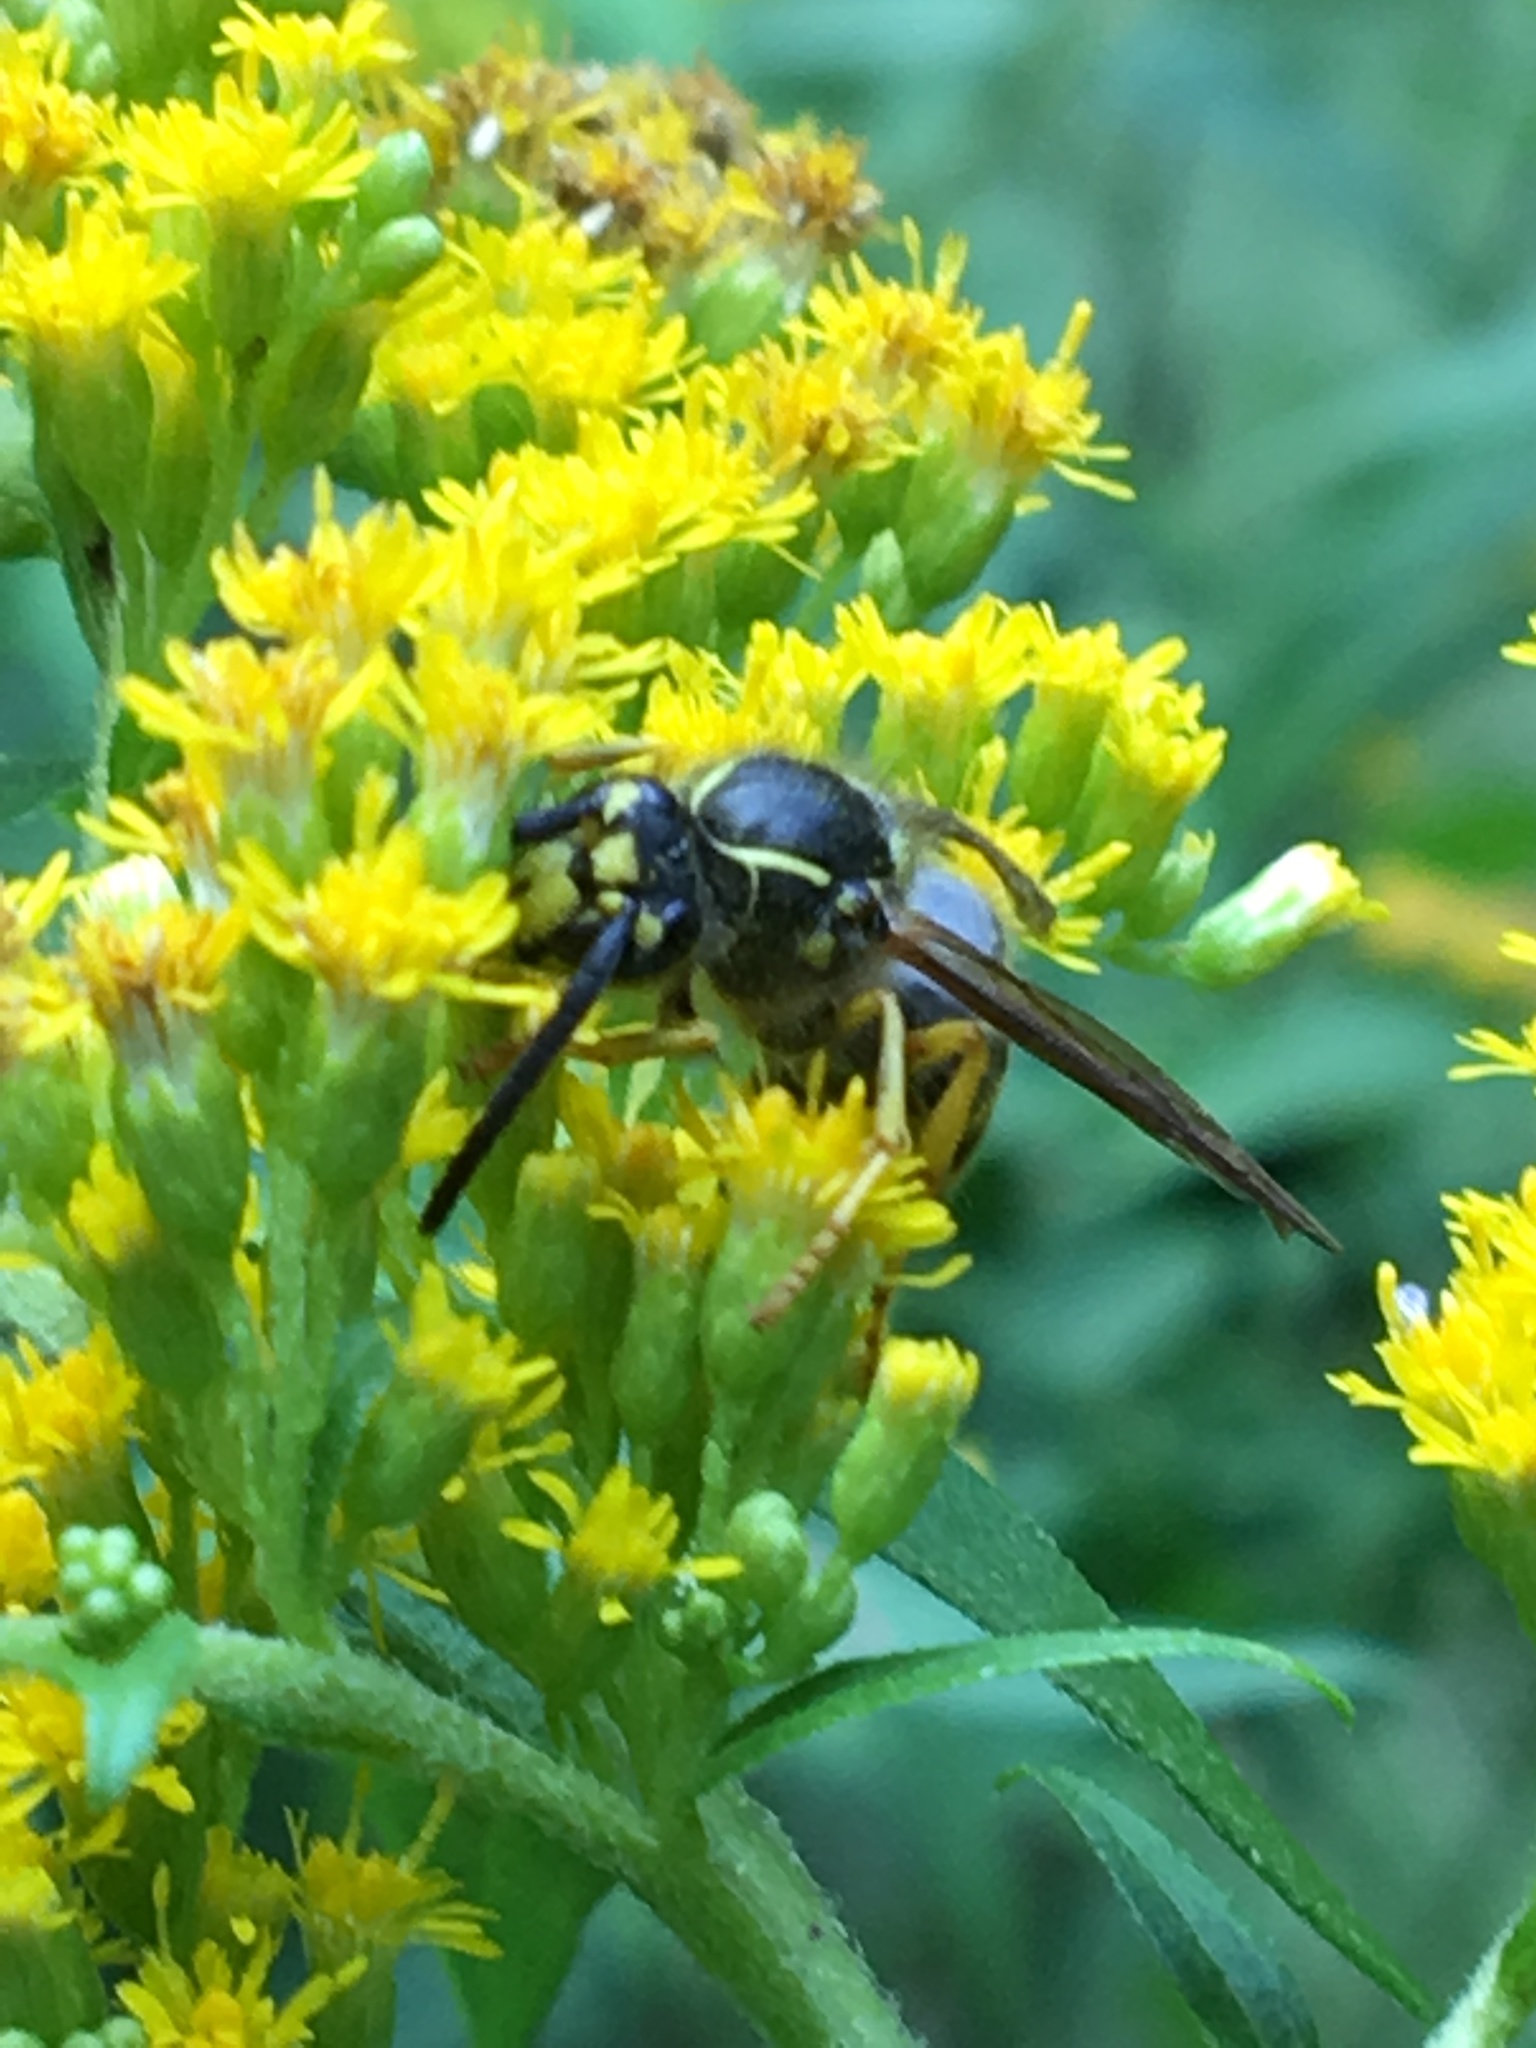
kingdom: Animalia
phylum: Arthropoda
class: Insecta
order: Hymenoptera
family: Vespidae
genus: Dolichovespula
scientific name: Dolichovespula arenaria
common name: Aerial yellowjacket
